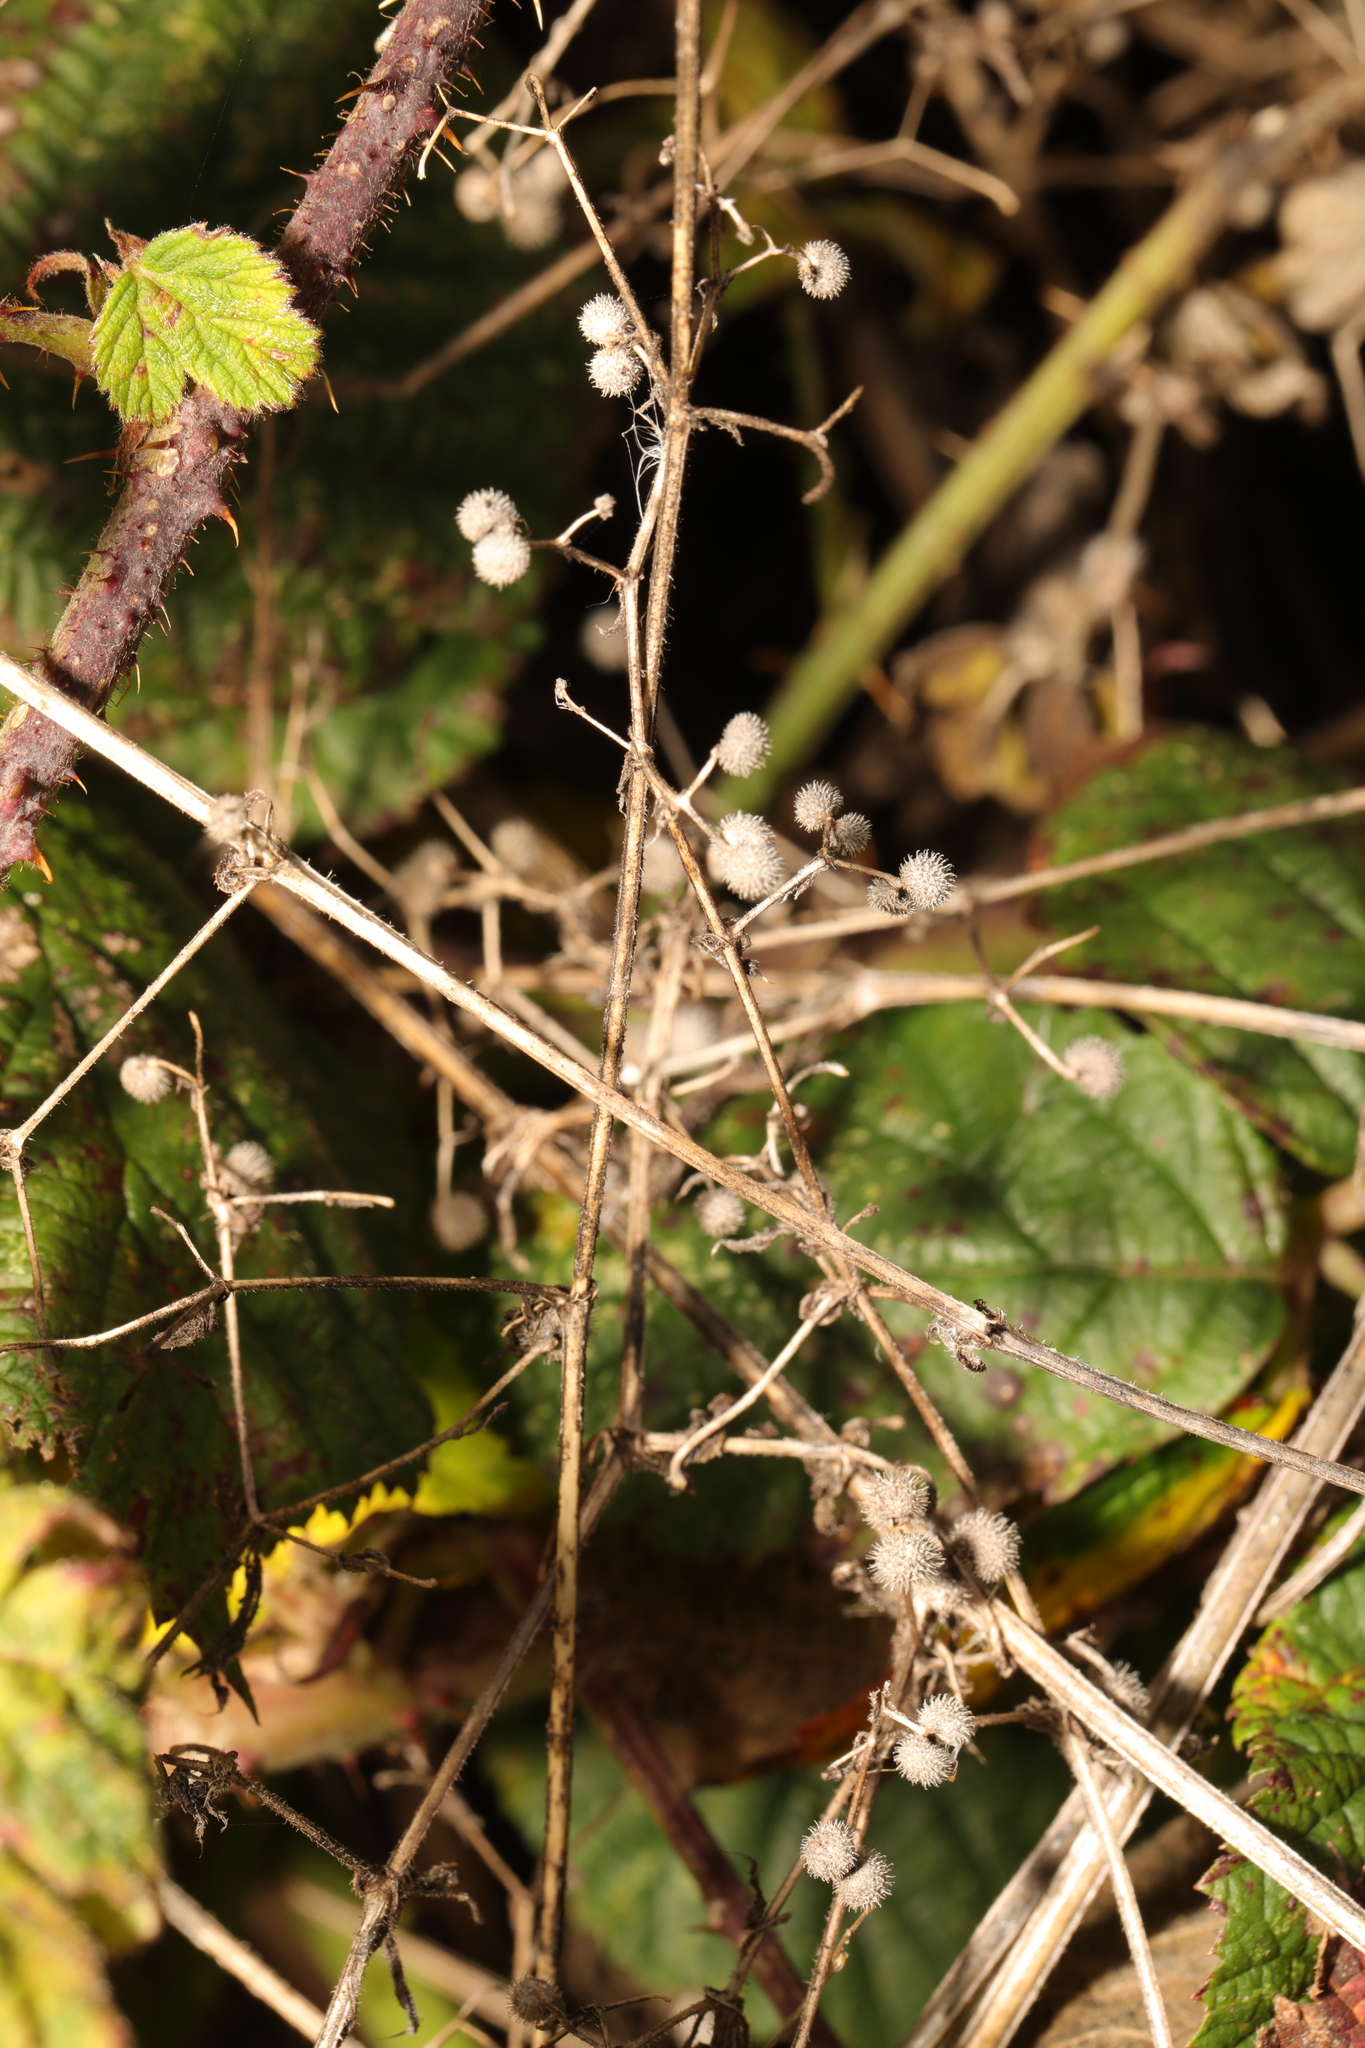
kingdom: Plantae
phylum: Tracheophyta
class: Magnoliopsida
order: Gentianales
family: Rubiaceae
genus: Galium
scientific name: Galium aparine
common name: Cleavers
